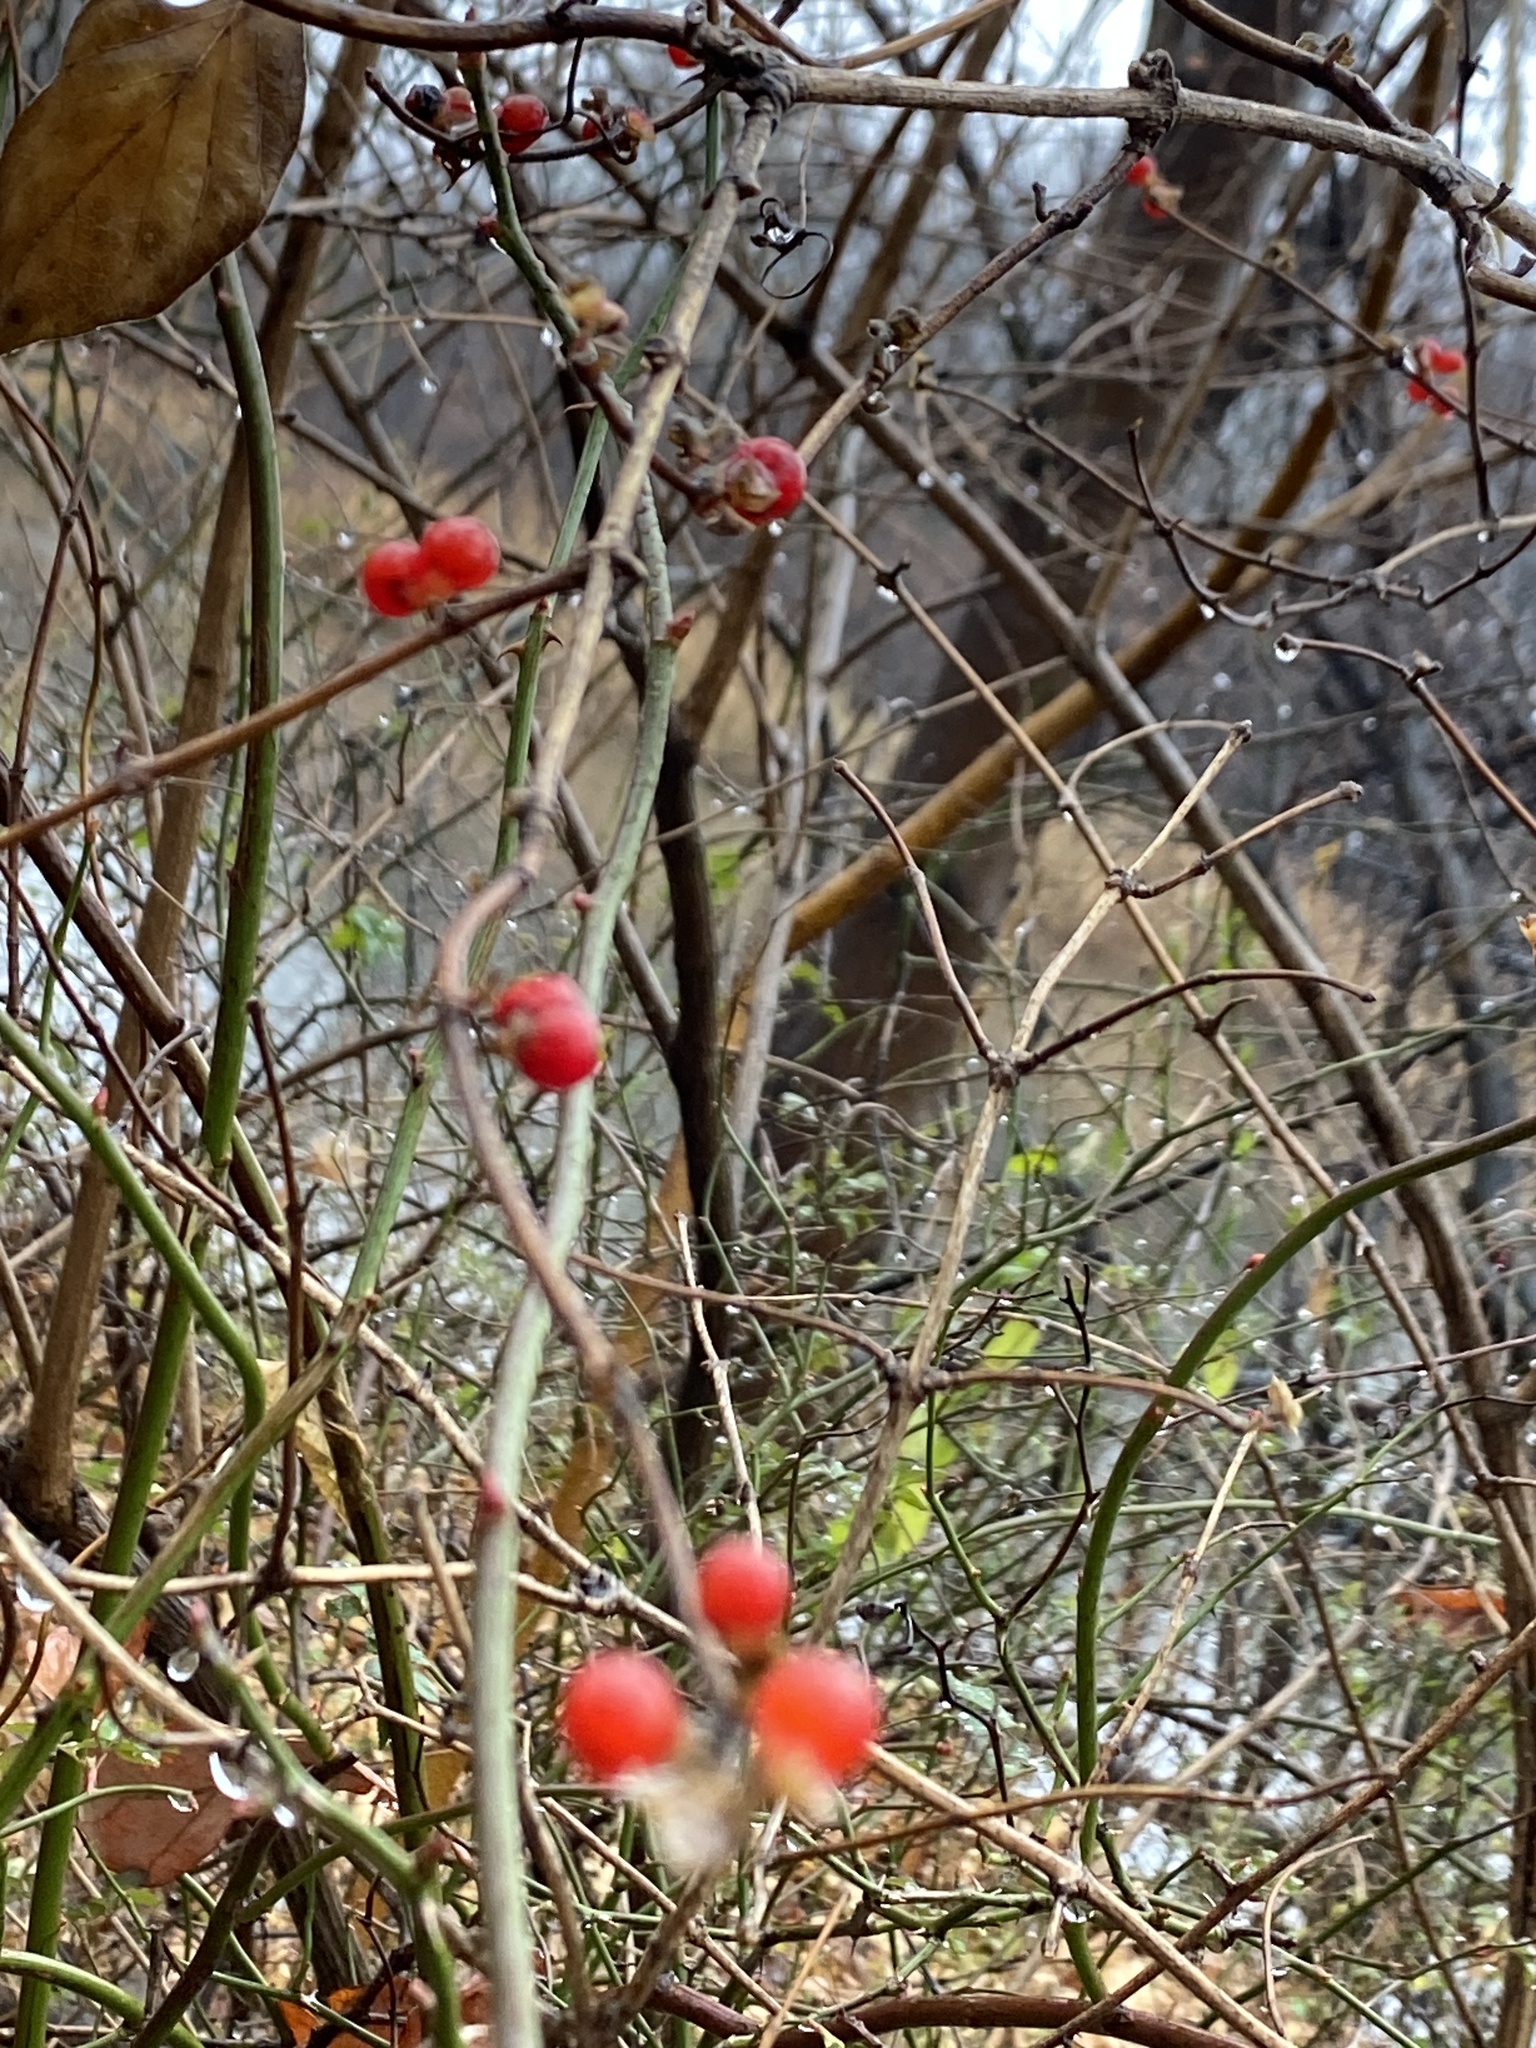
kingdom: Plantae
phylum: Tracheophyta
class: Magnoliopsida
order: Dipsacales
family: Caprifoliaceae
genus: Lonicera
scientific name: Lonicera maackii
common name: Amur honeysuckle
